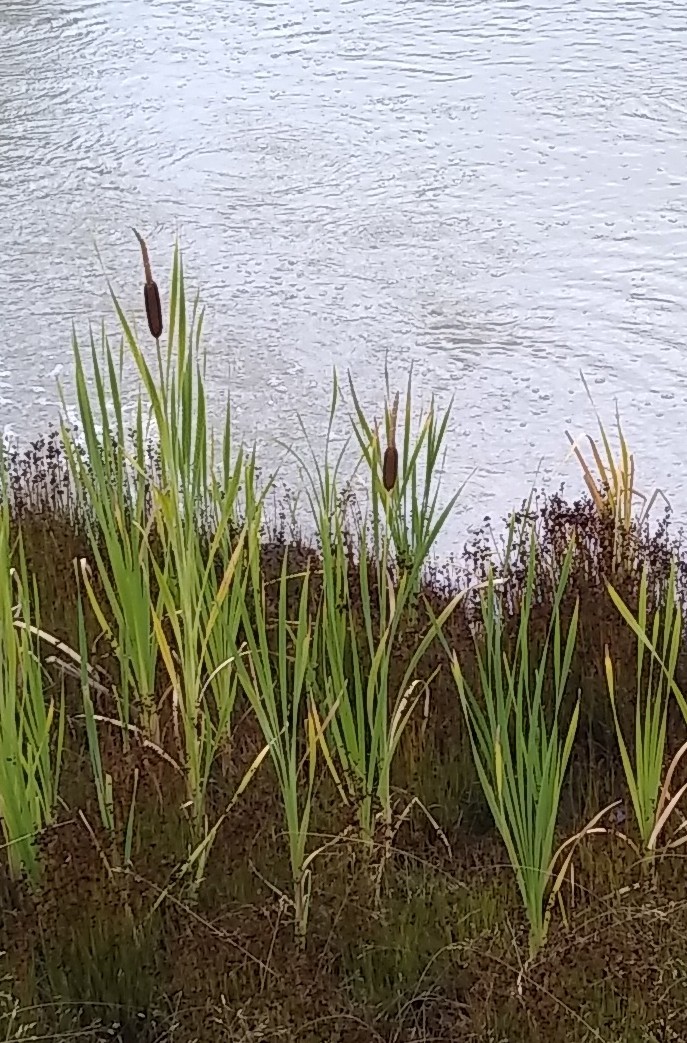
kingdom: Plantae
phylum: Tracheophyta
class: Liliopsida
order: Poales
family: Typhaceae
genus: Typha
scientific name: Typha latifolia
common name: Broadleaf cattail
